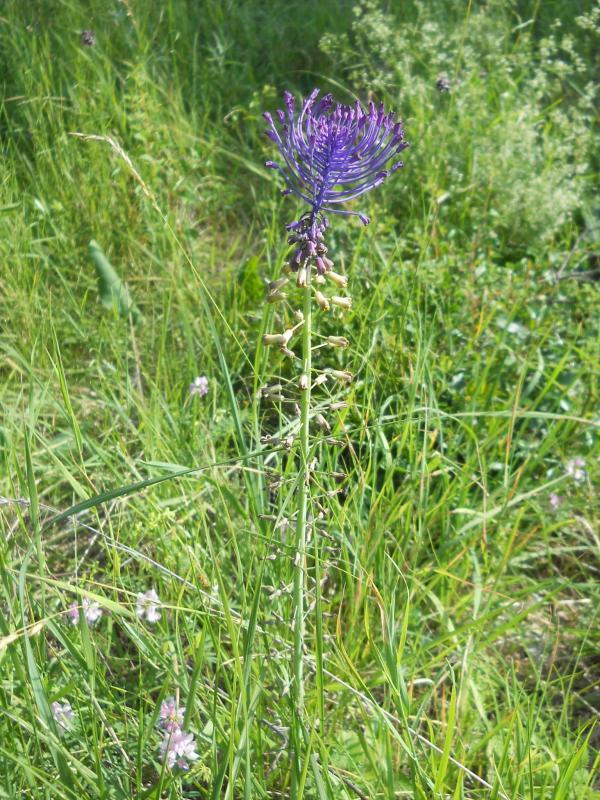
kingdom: Plantae
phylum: Tracheophyta
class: Liliopsida
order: Asparagales
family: Asparagaceae
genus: Muscari
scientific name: Muscari comosum
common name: Tassel hyacinth
